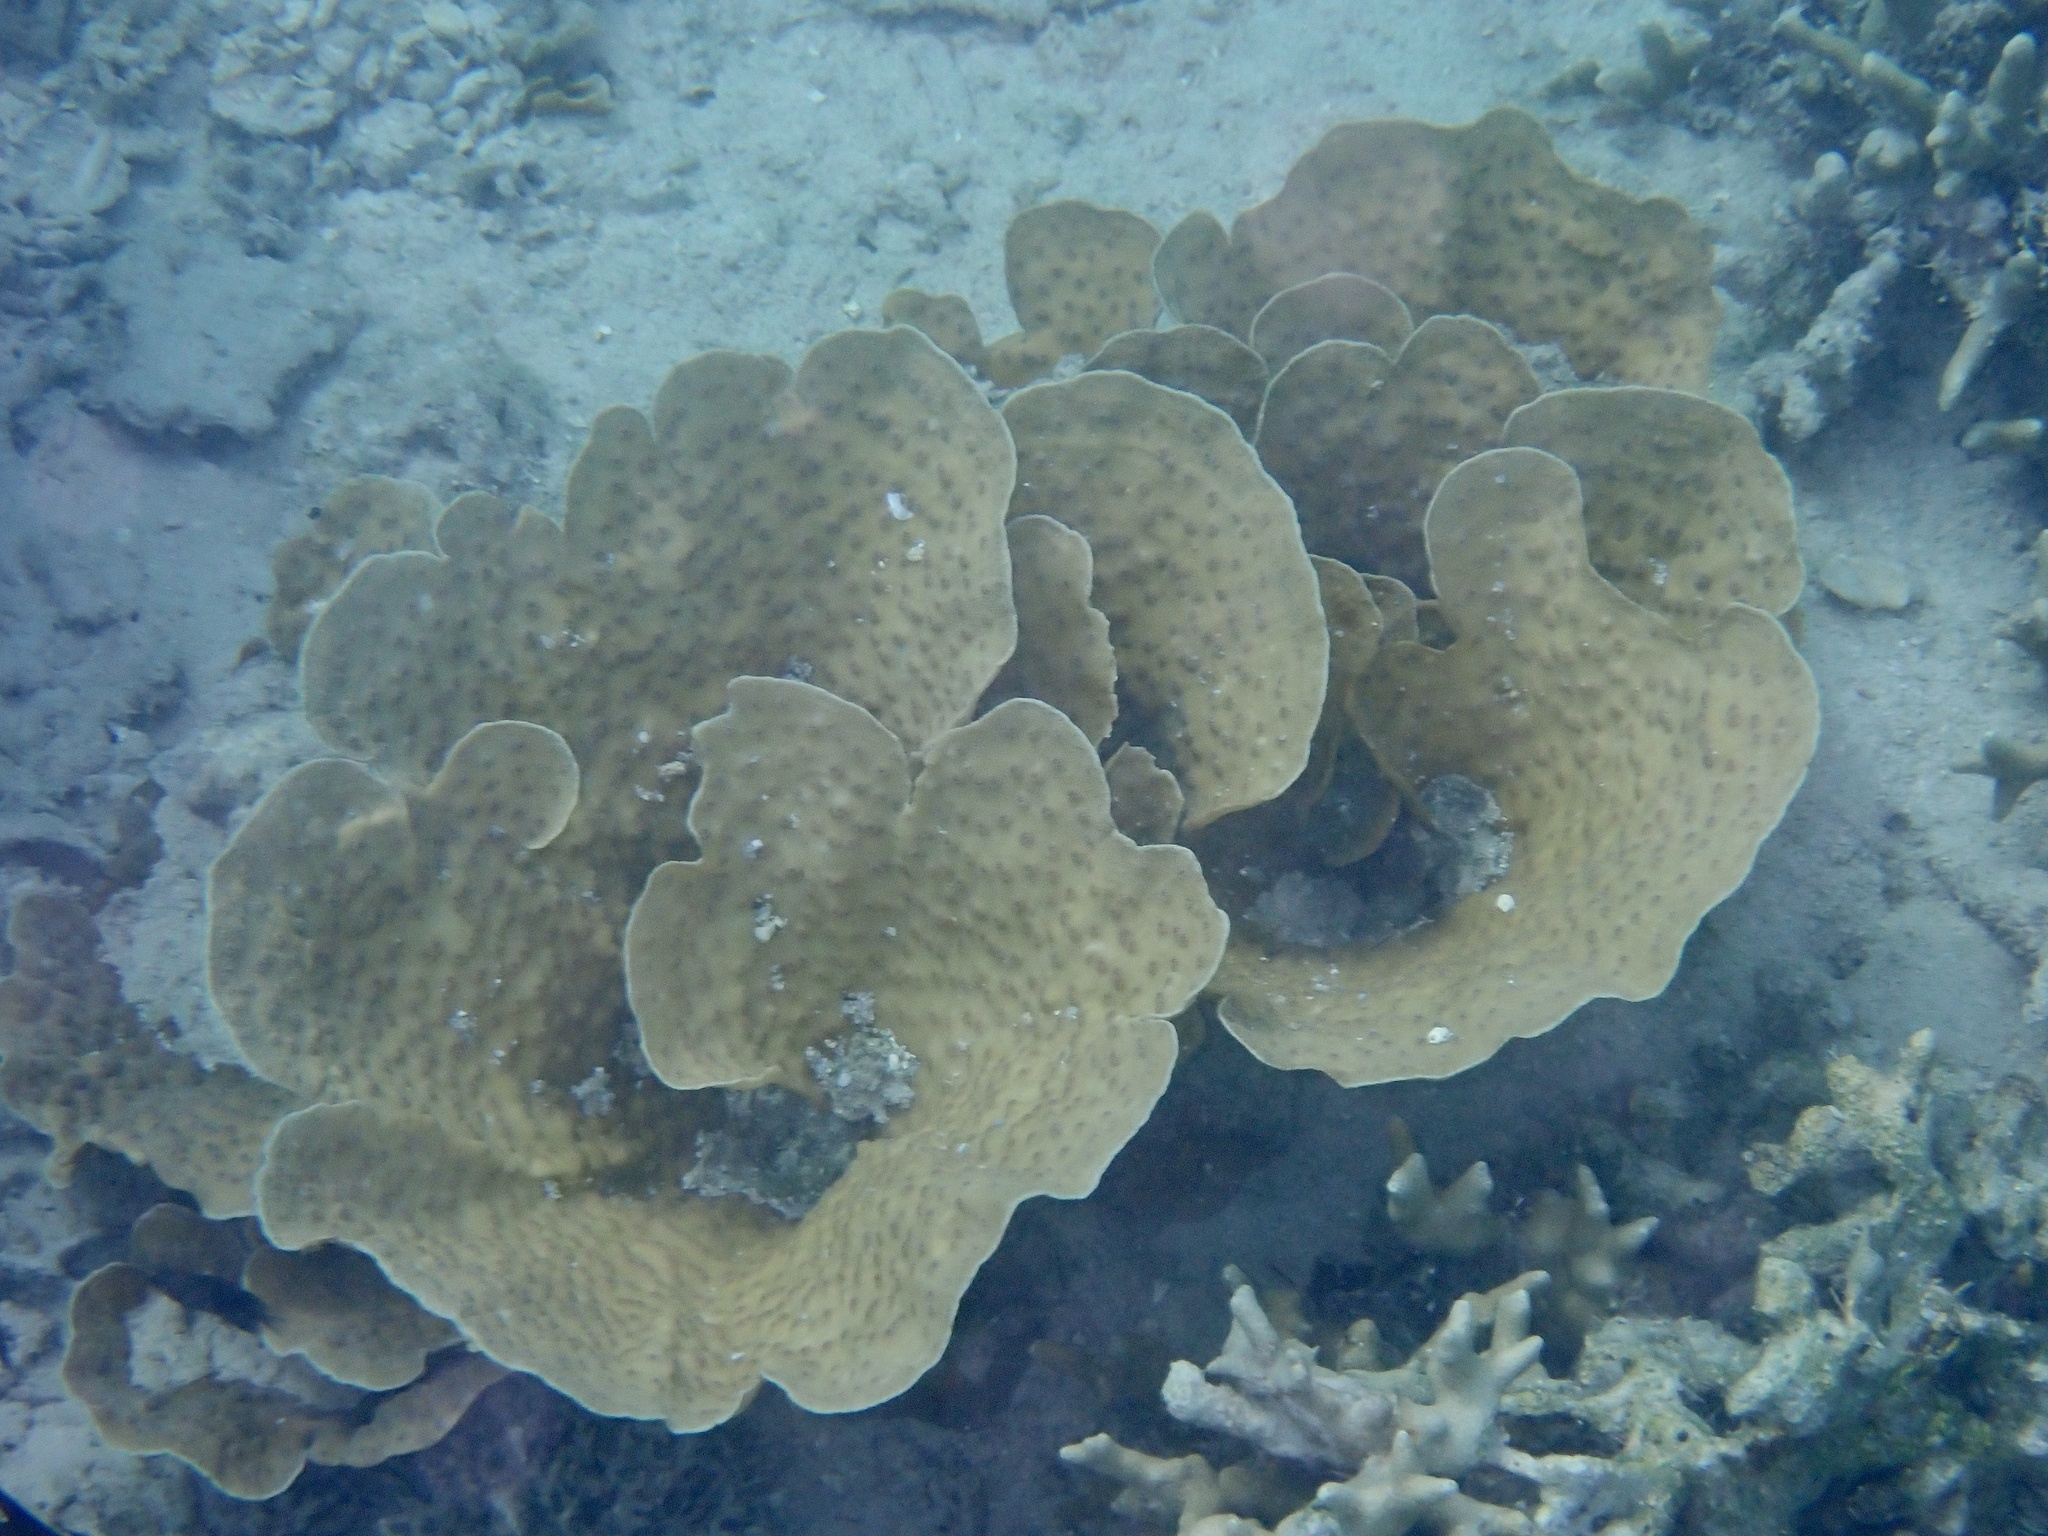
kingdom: Animalia
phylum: Cnidaria
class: Anthozoa
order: Scleractinia
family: Merulinidae
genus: Echinopora
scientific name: Echinopora lamellosa
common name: Hedgehog coral
